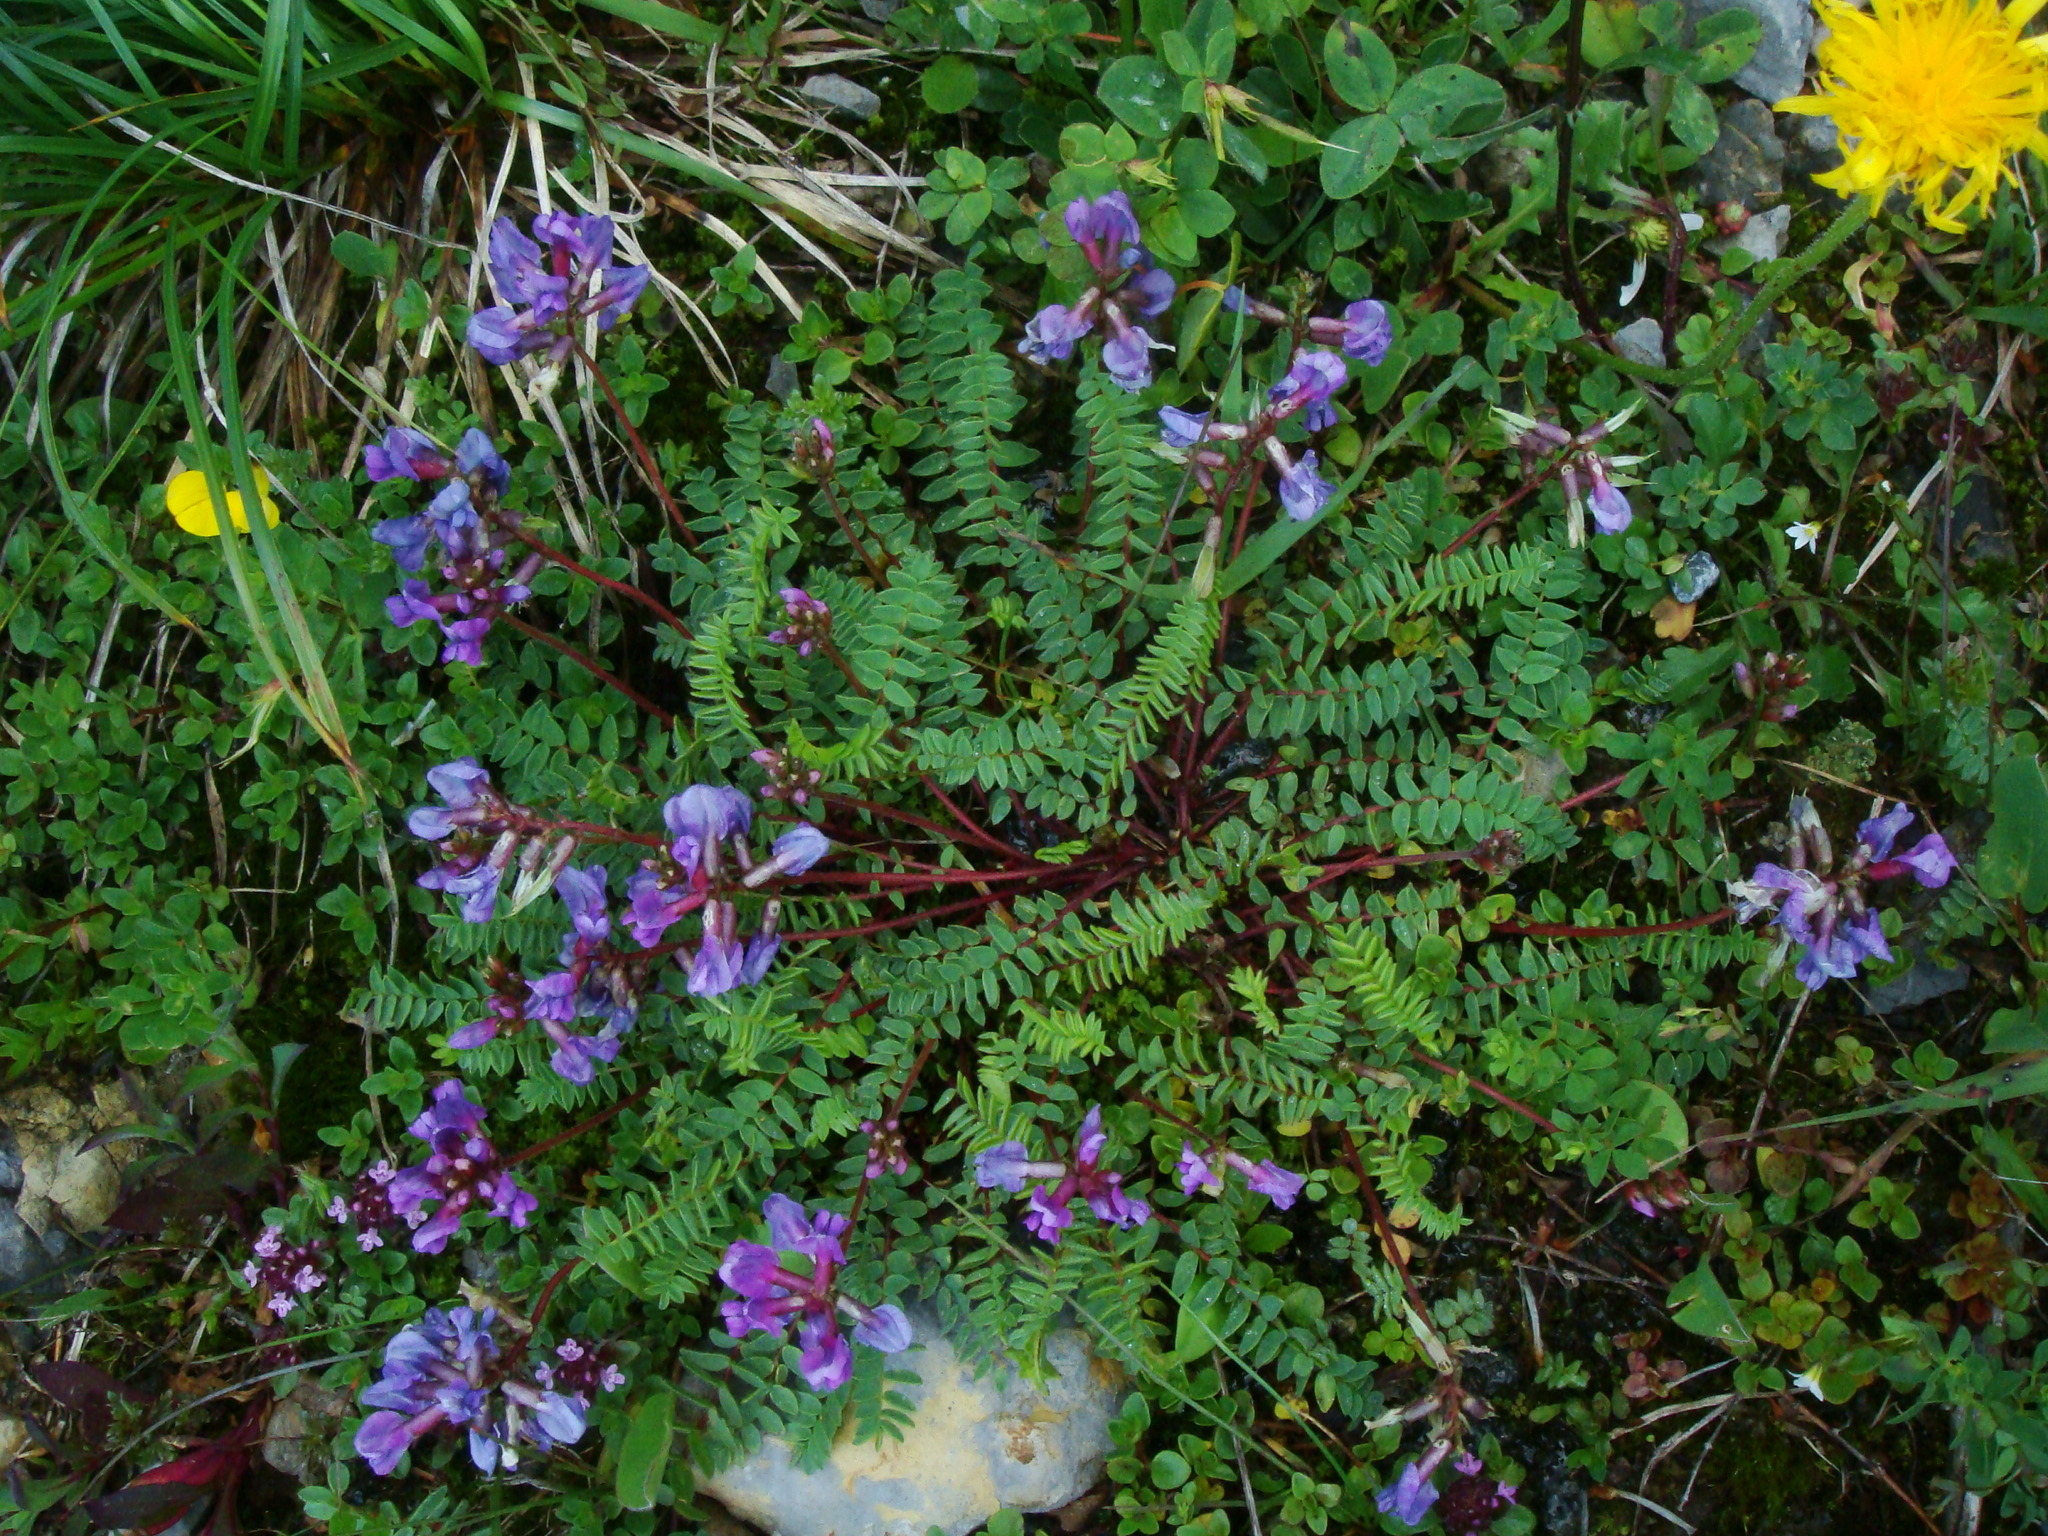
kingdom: Plantae
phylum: Tracheophyta
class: Magnoliopsida
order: Fabales
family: Fabaceae
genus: Oxytropis
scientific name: Oxytropis montana
